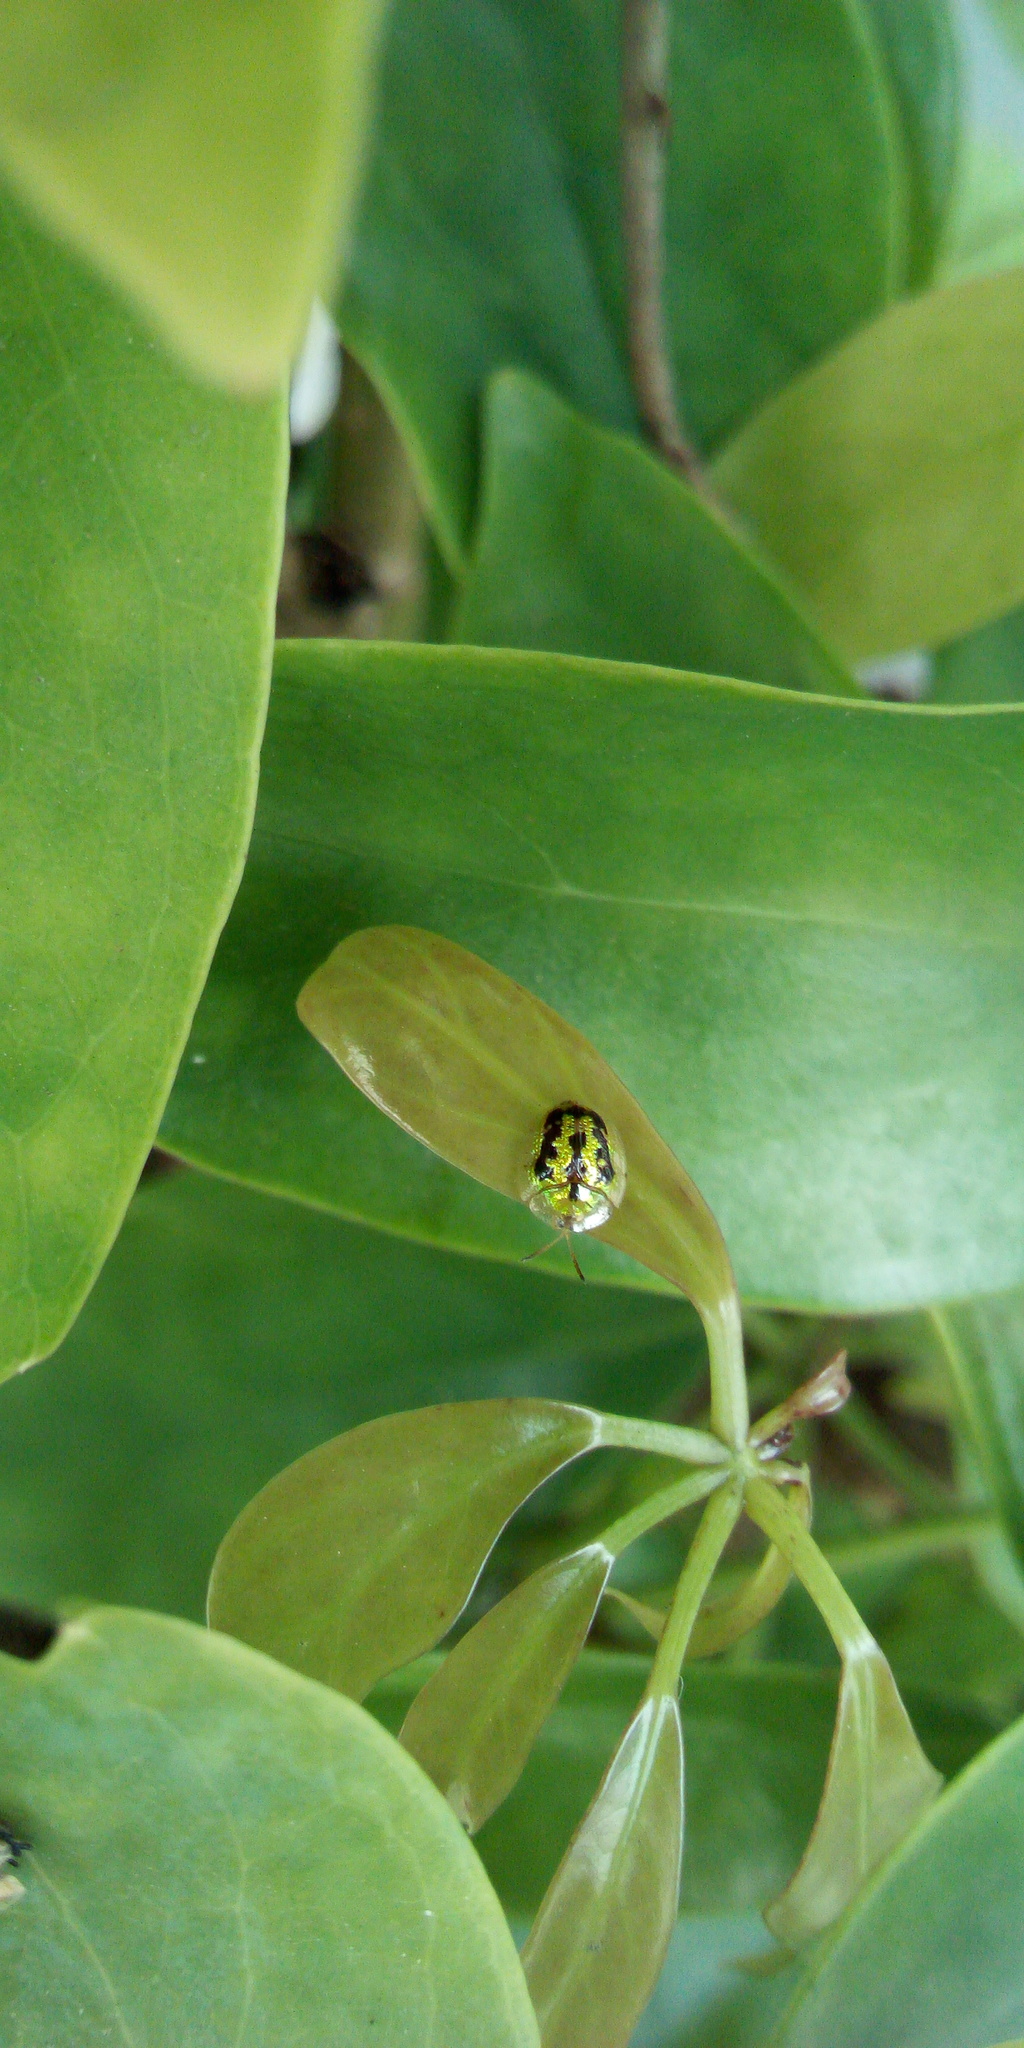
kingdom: Animalia
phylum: Arthropoda
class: Insecta
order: Coleoptera
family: Chrysomelidae
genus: Cassida
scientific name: Cassida circumdata
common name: Tortoise beetle
